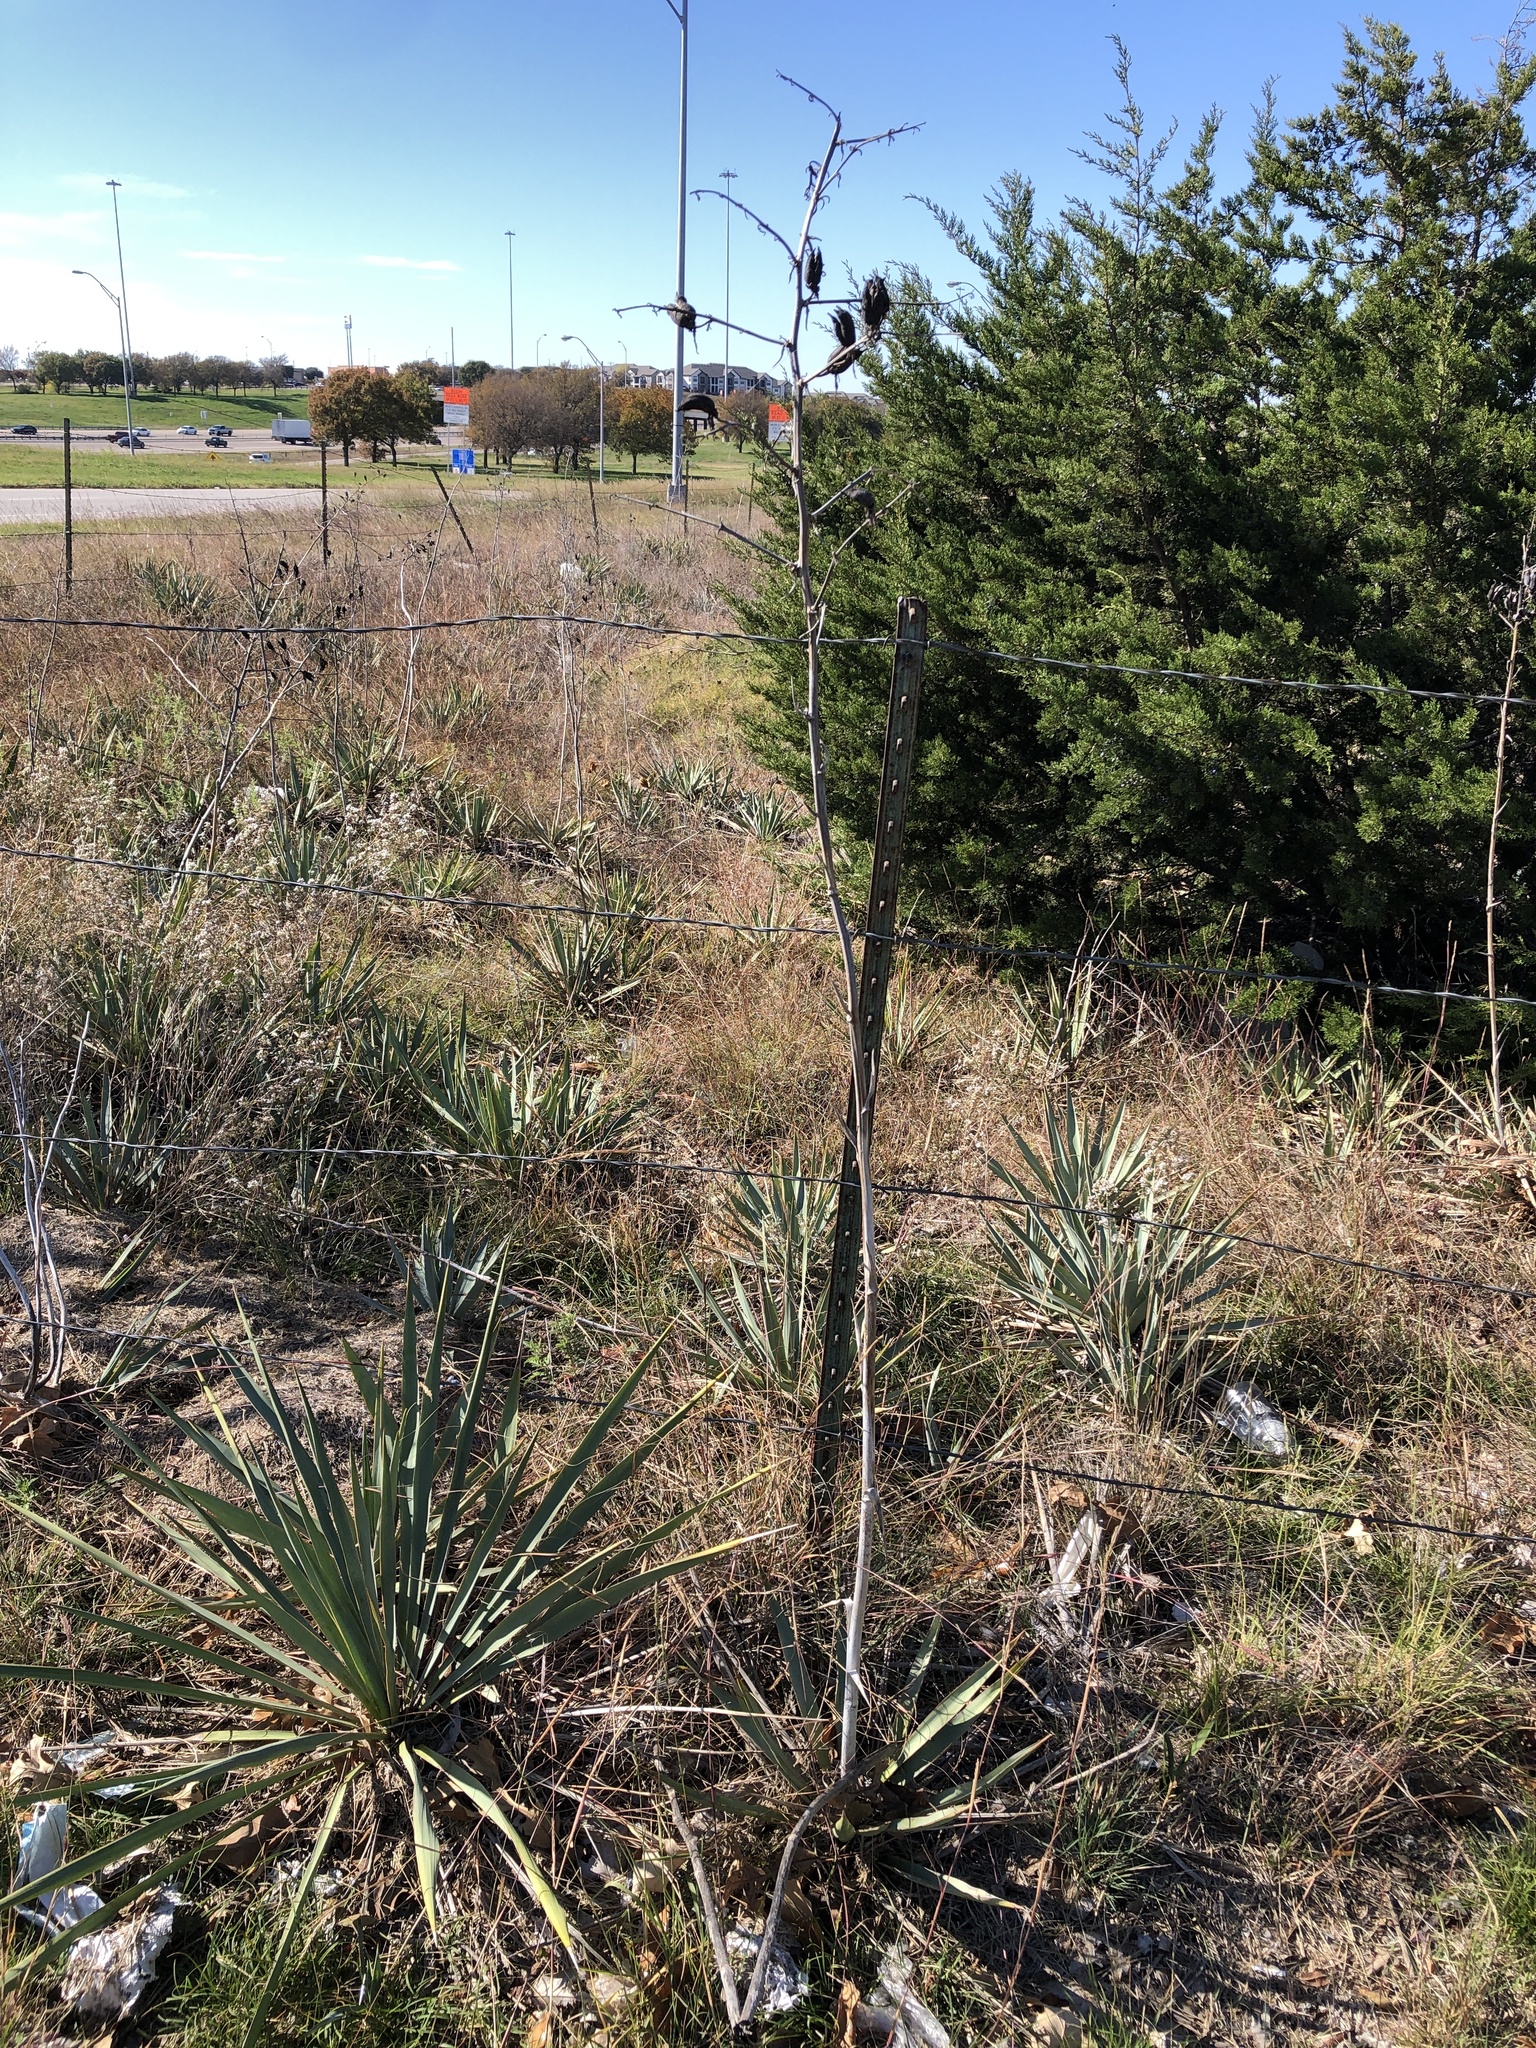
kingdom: Plantae
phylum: Tracheophyta
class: Liliopsida
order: Asparagales
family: Asparagaceae
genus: Yucca
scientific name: Yucca pallida
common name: Pale leaf yucca
